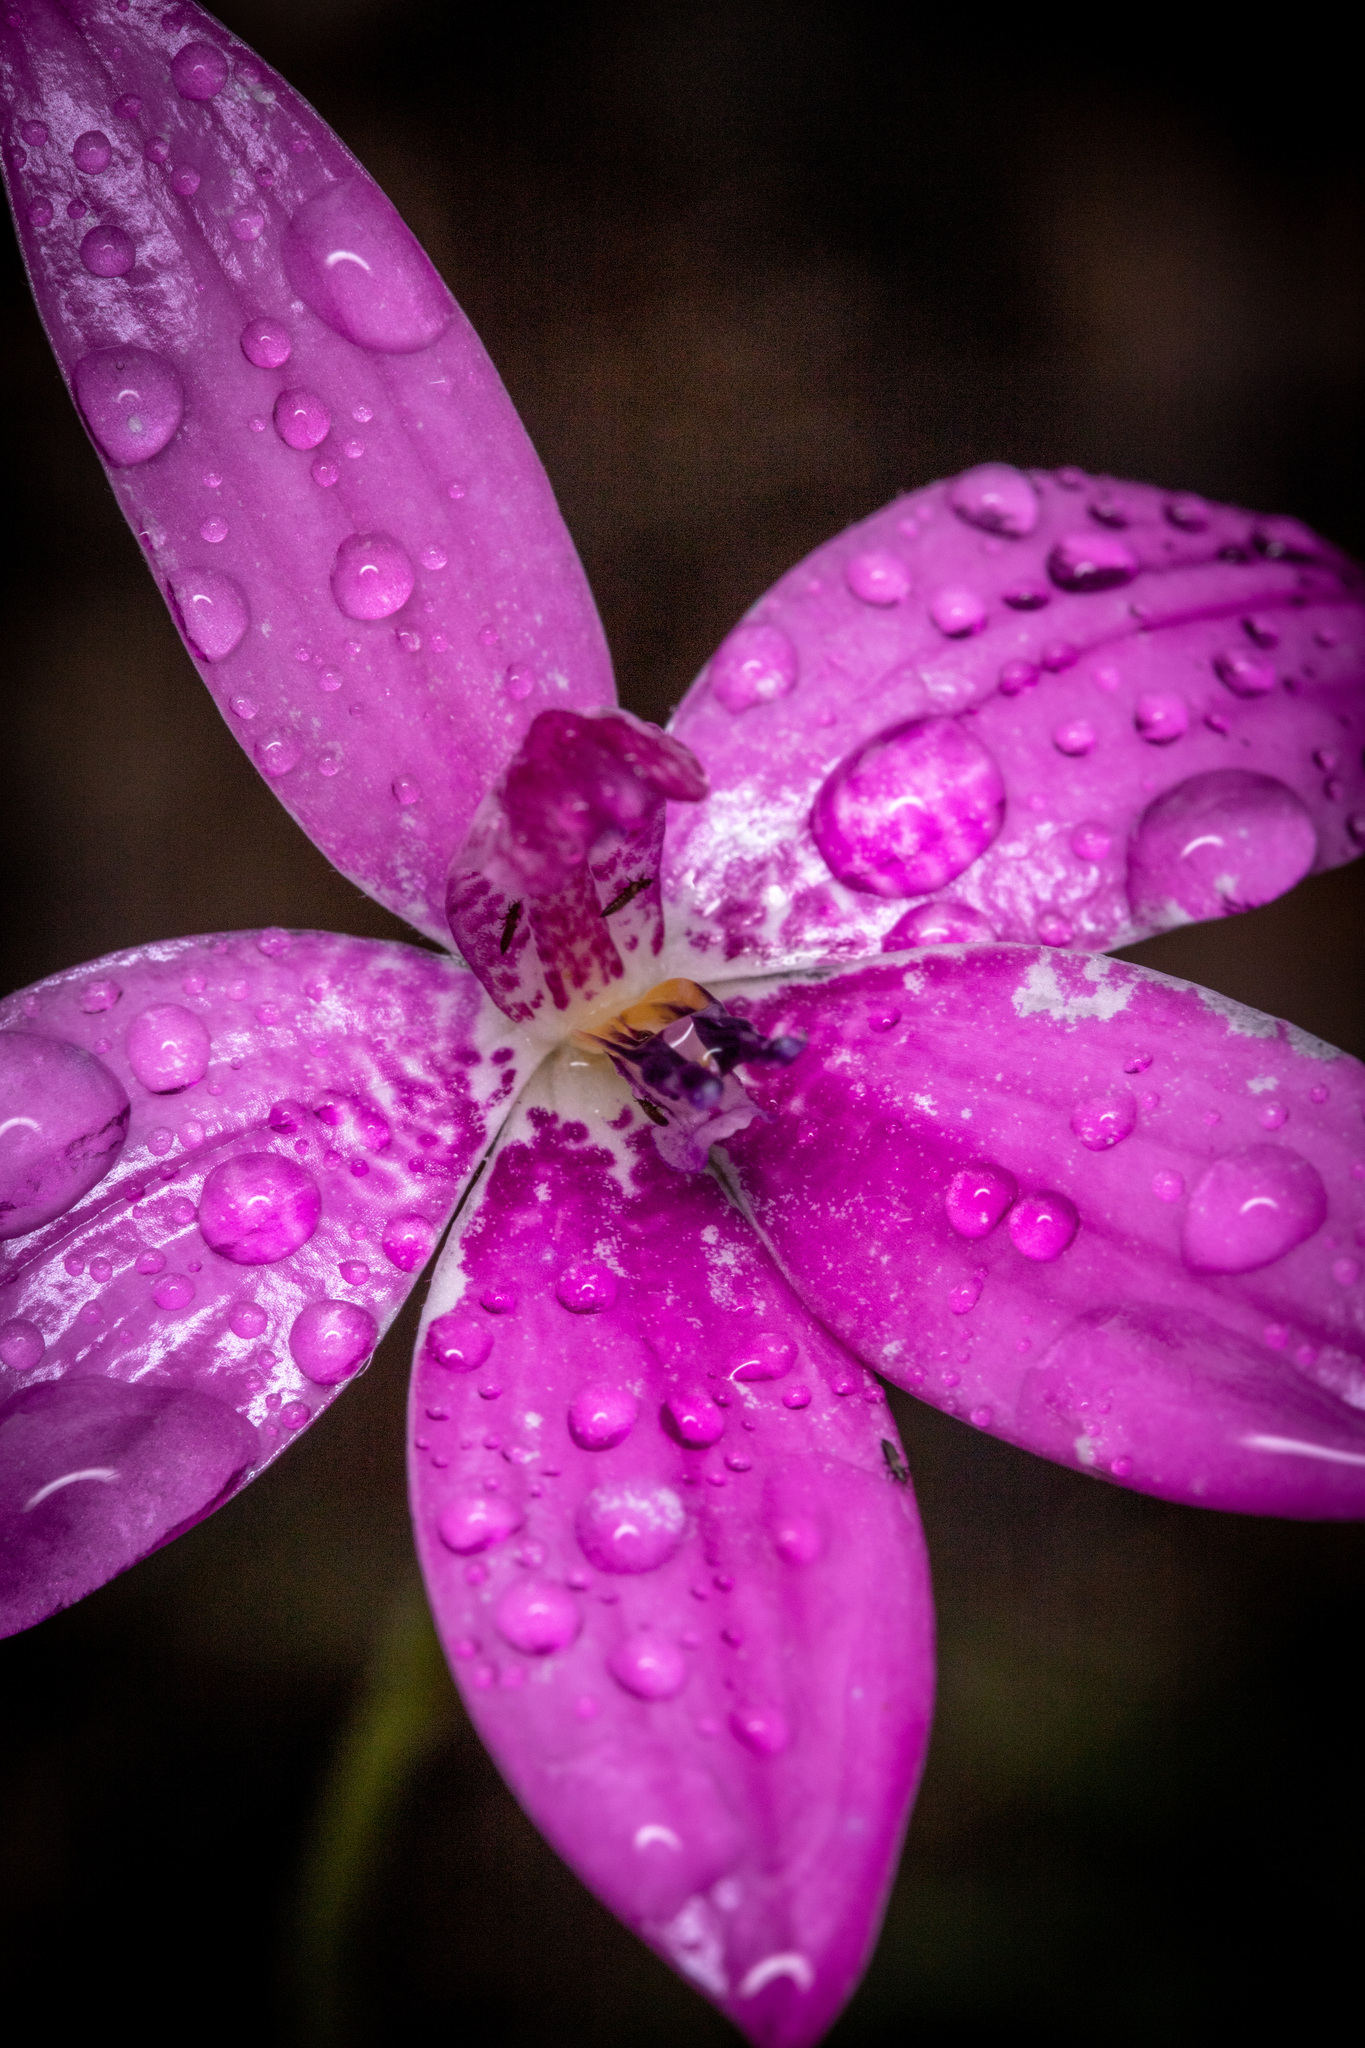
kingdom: Plantae
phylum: Tracheophyta
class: Liliopsida
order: Asparagales
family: Orchidaceae
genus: Caladenia
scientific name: Caladenia emarginata
